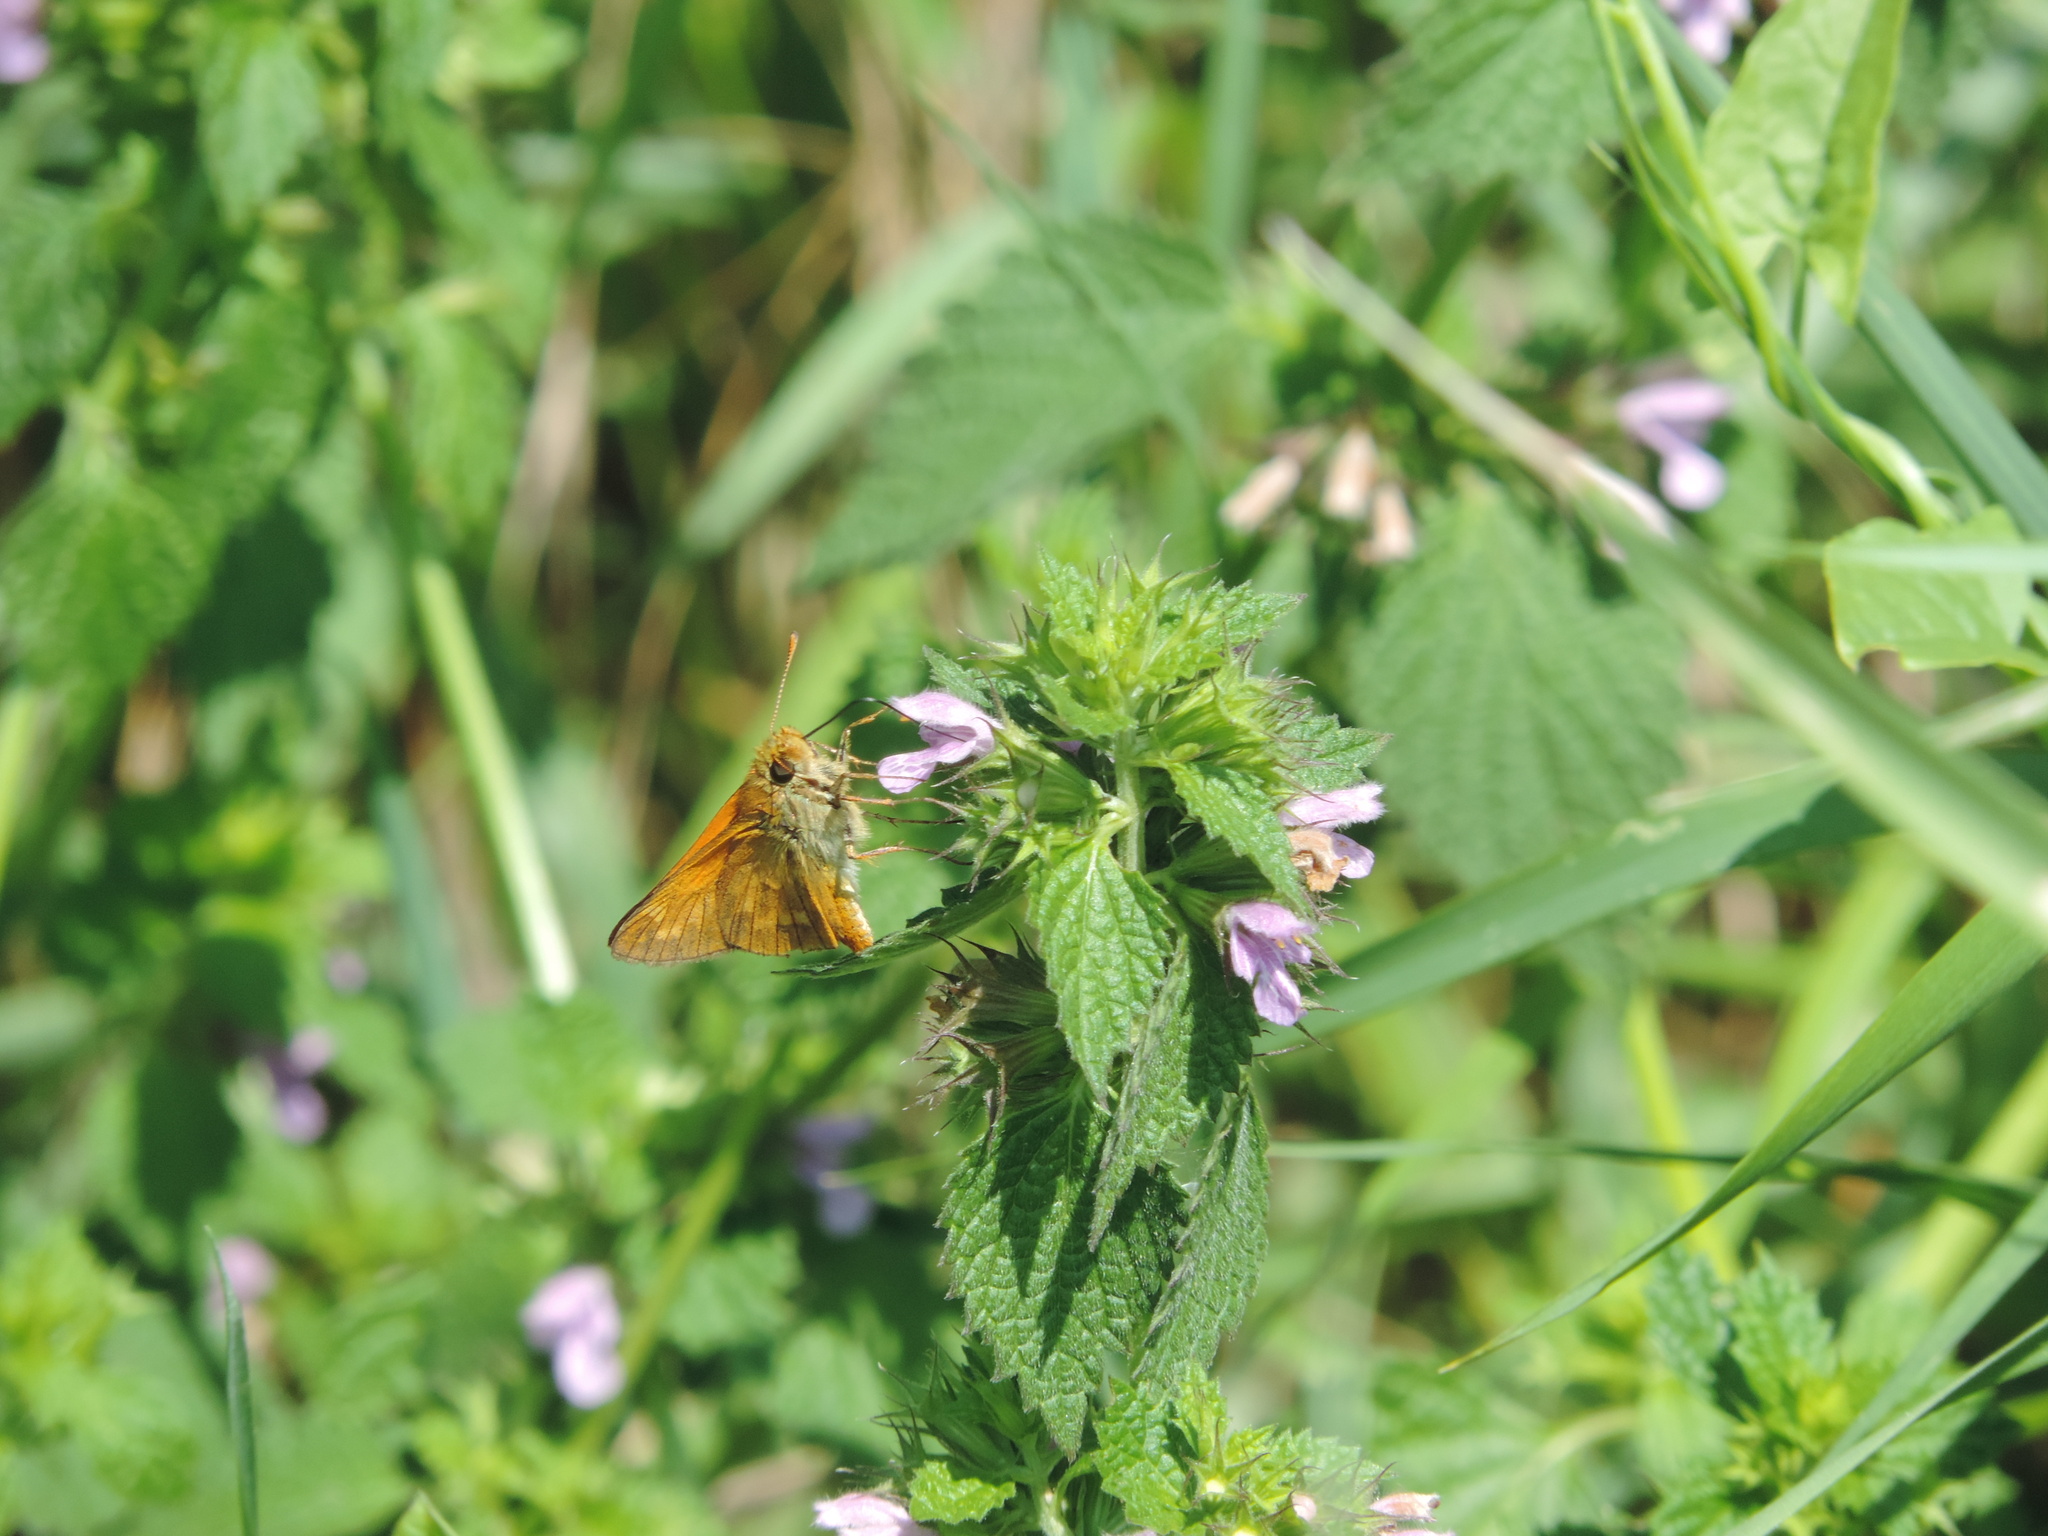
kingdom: Animalia
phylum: Arthropoda
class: Insecta
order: Lepidoptera
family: Hesperiidae
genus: Ochlodes
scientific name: Ochlodes venata
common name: Large skipper
